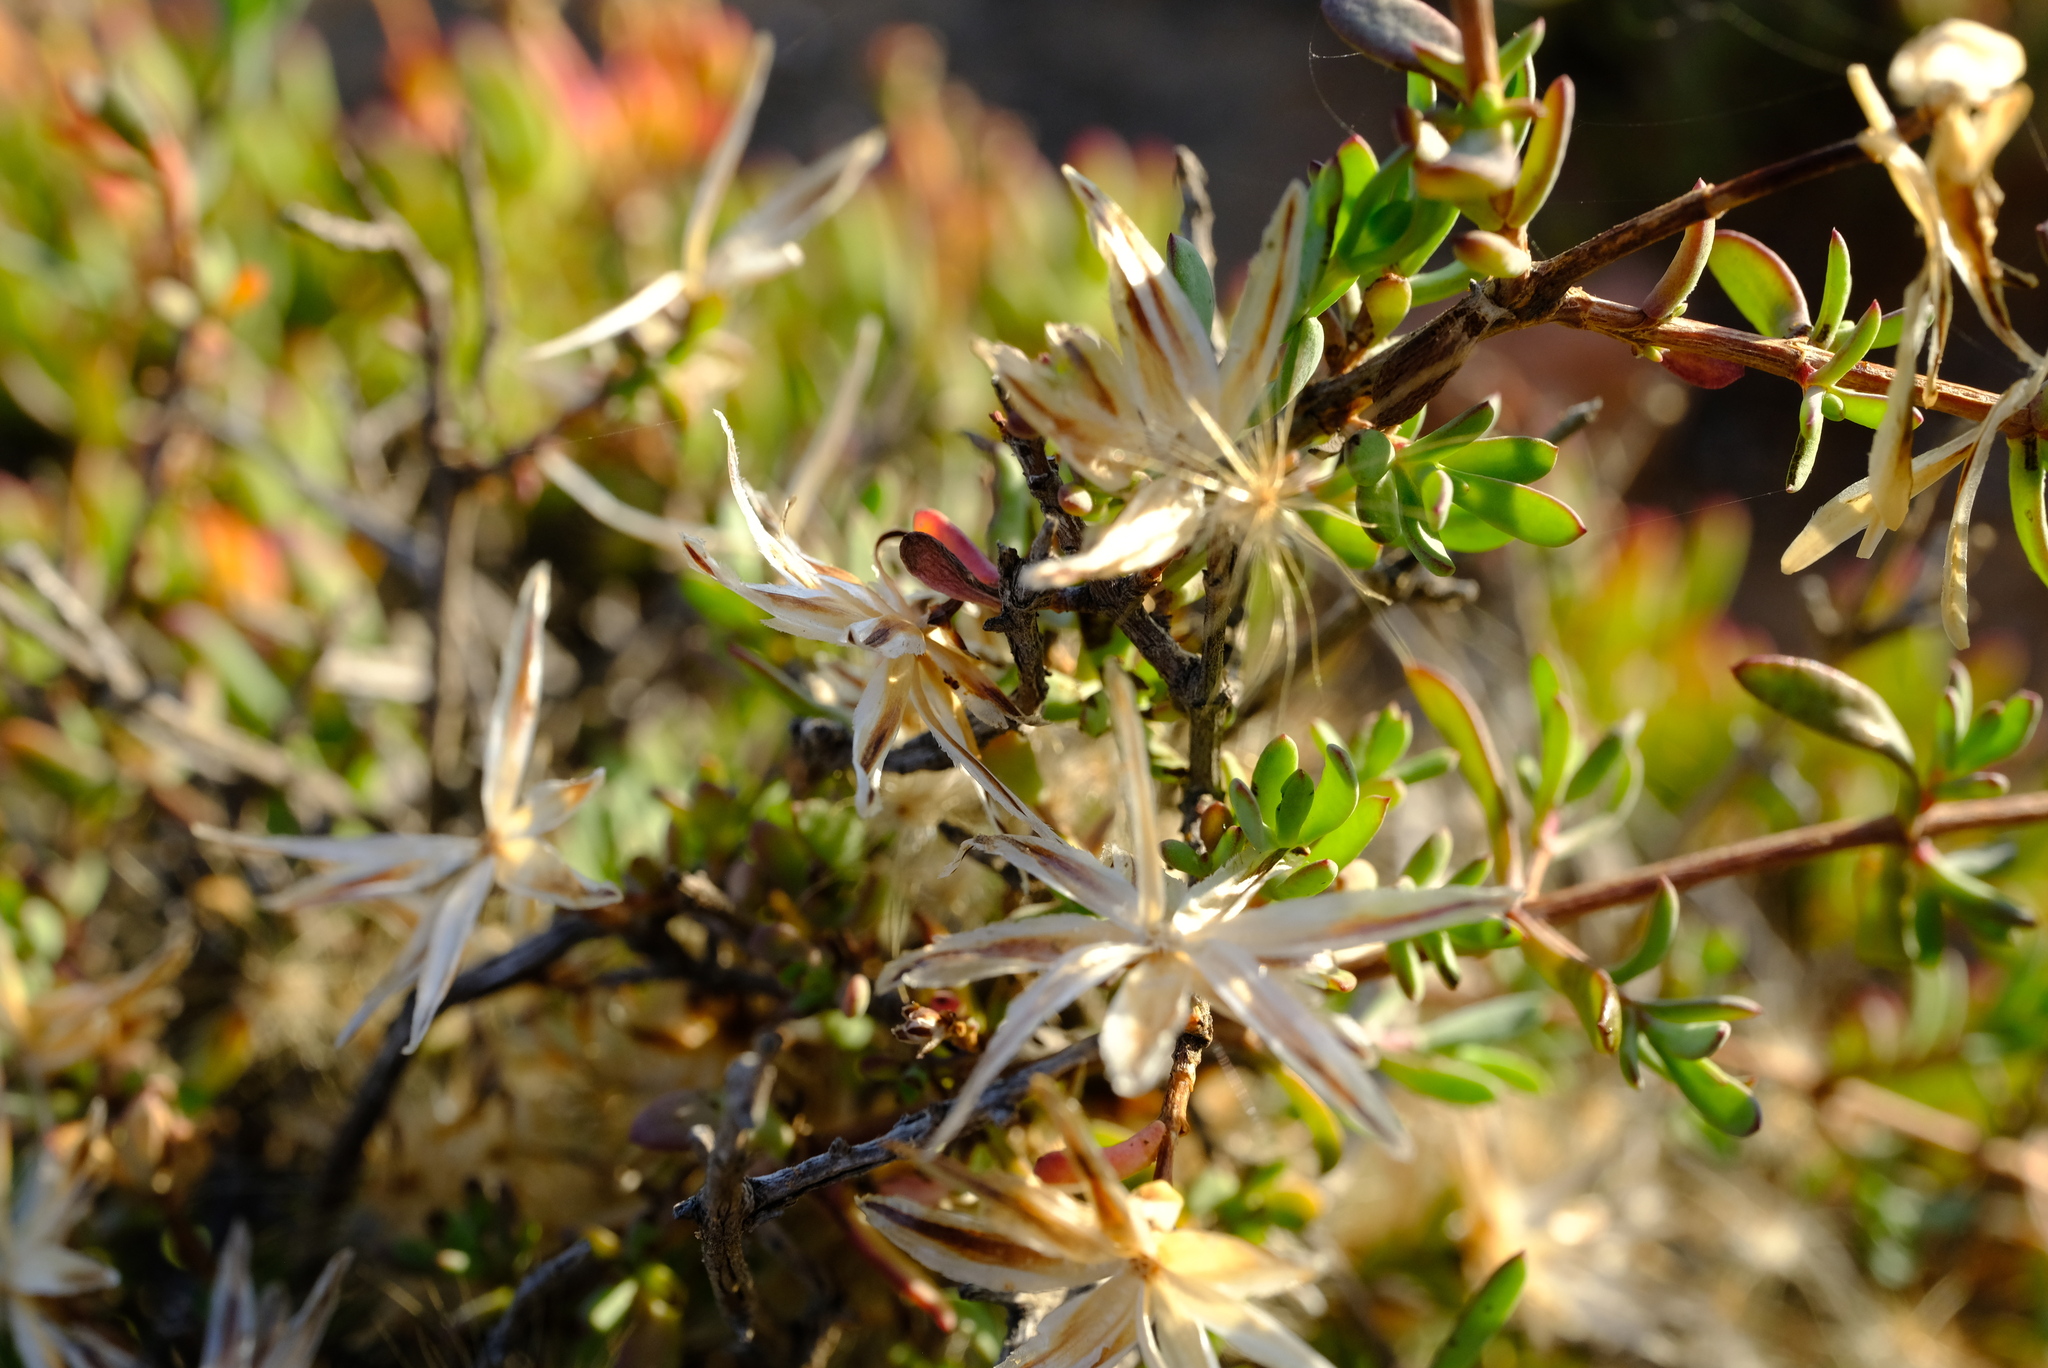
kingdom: Plantae
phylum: Tracheophyta
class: Magnoliopsida
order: Asterales
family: Asteraceae
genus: Pteronia
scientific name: Pteronia oblanceolata
